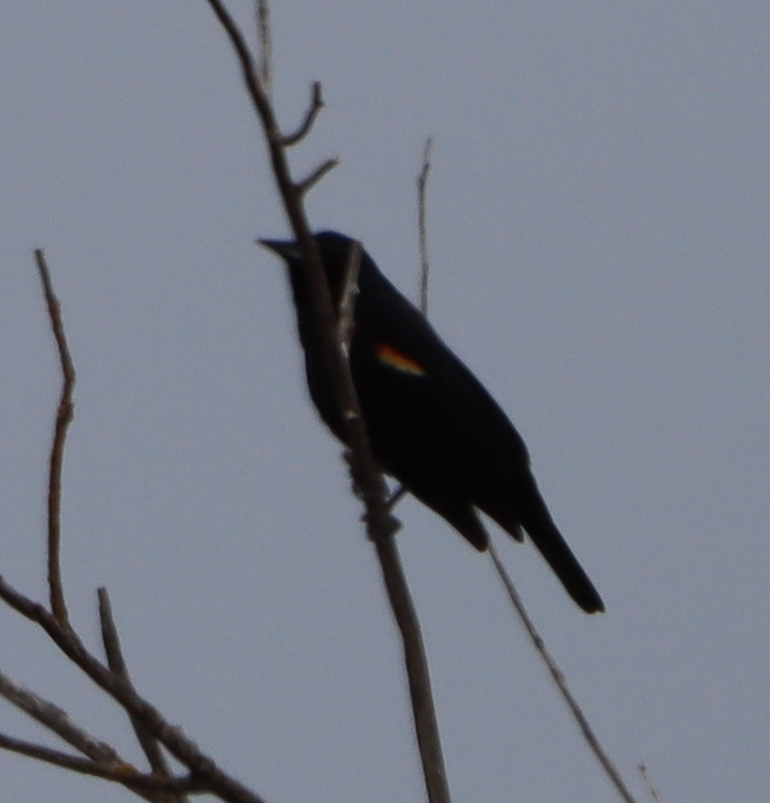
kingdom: Animalia
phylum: Chordata
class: Aves
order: Passeriformes
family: Icteridae
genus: Agelaius
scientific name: Agelaius phoeniceus
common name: Red-winged blackbird
